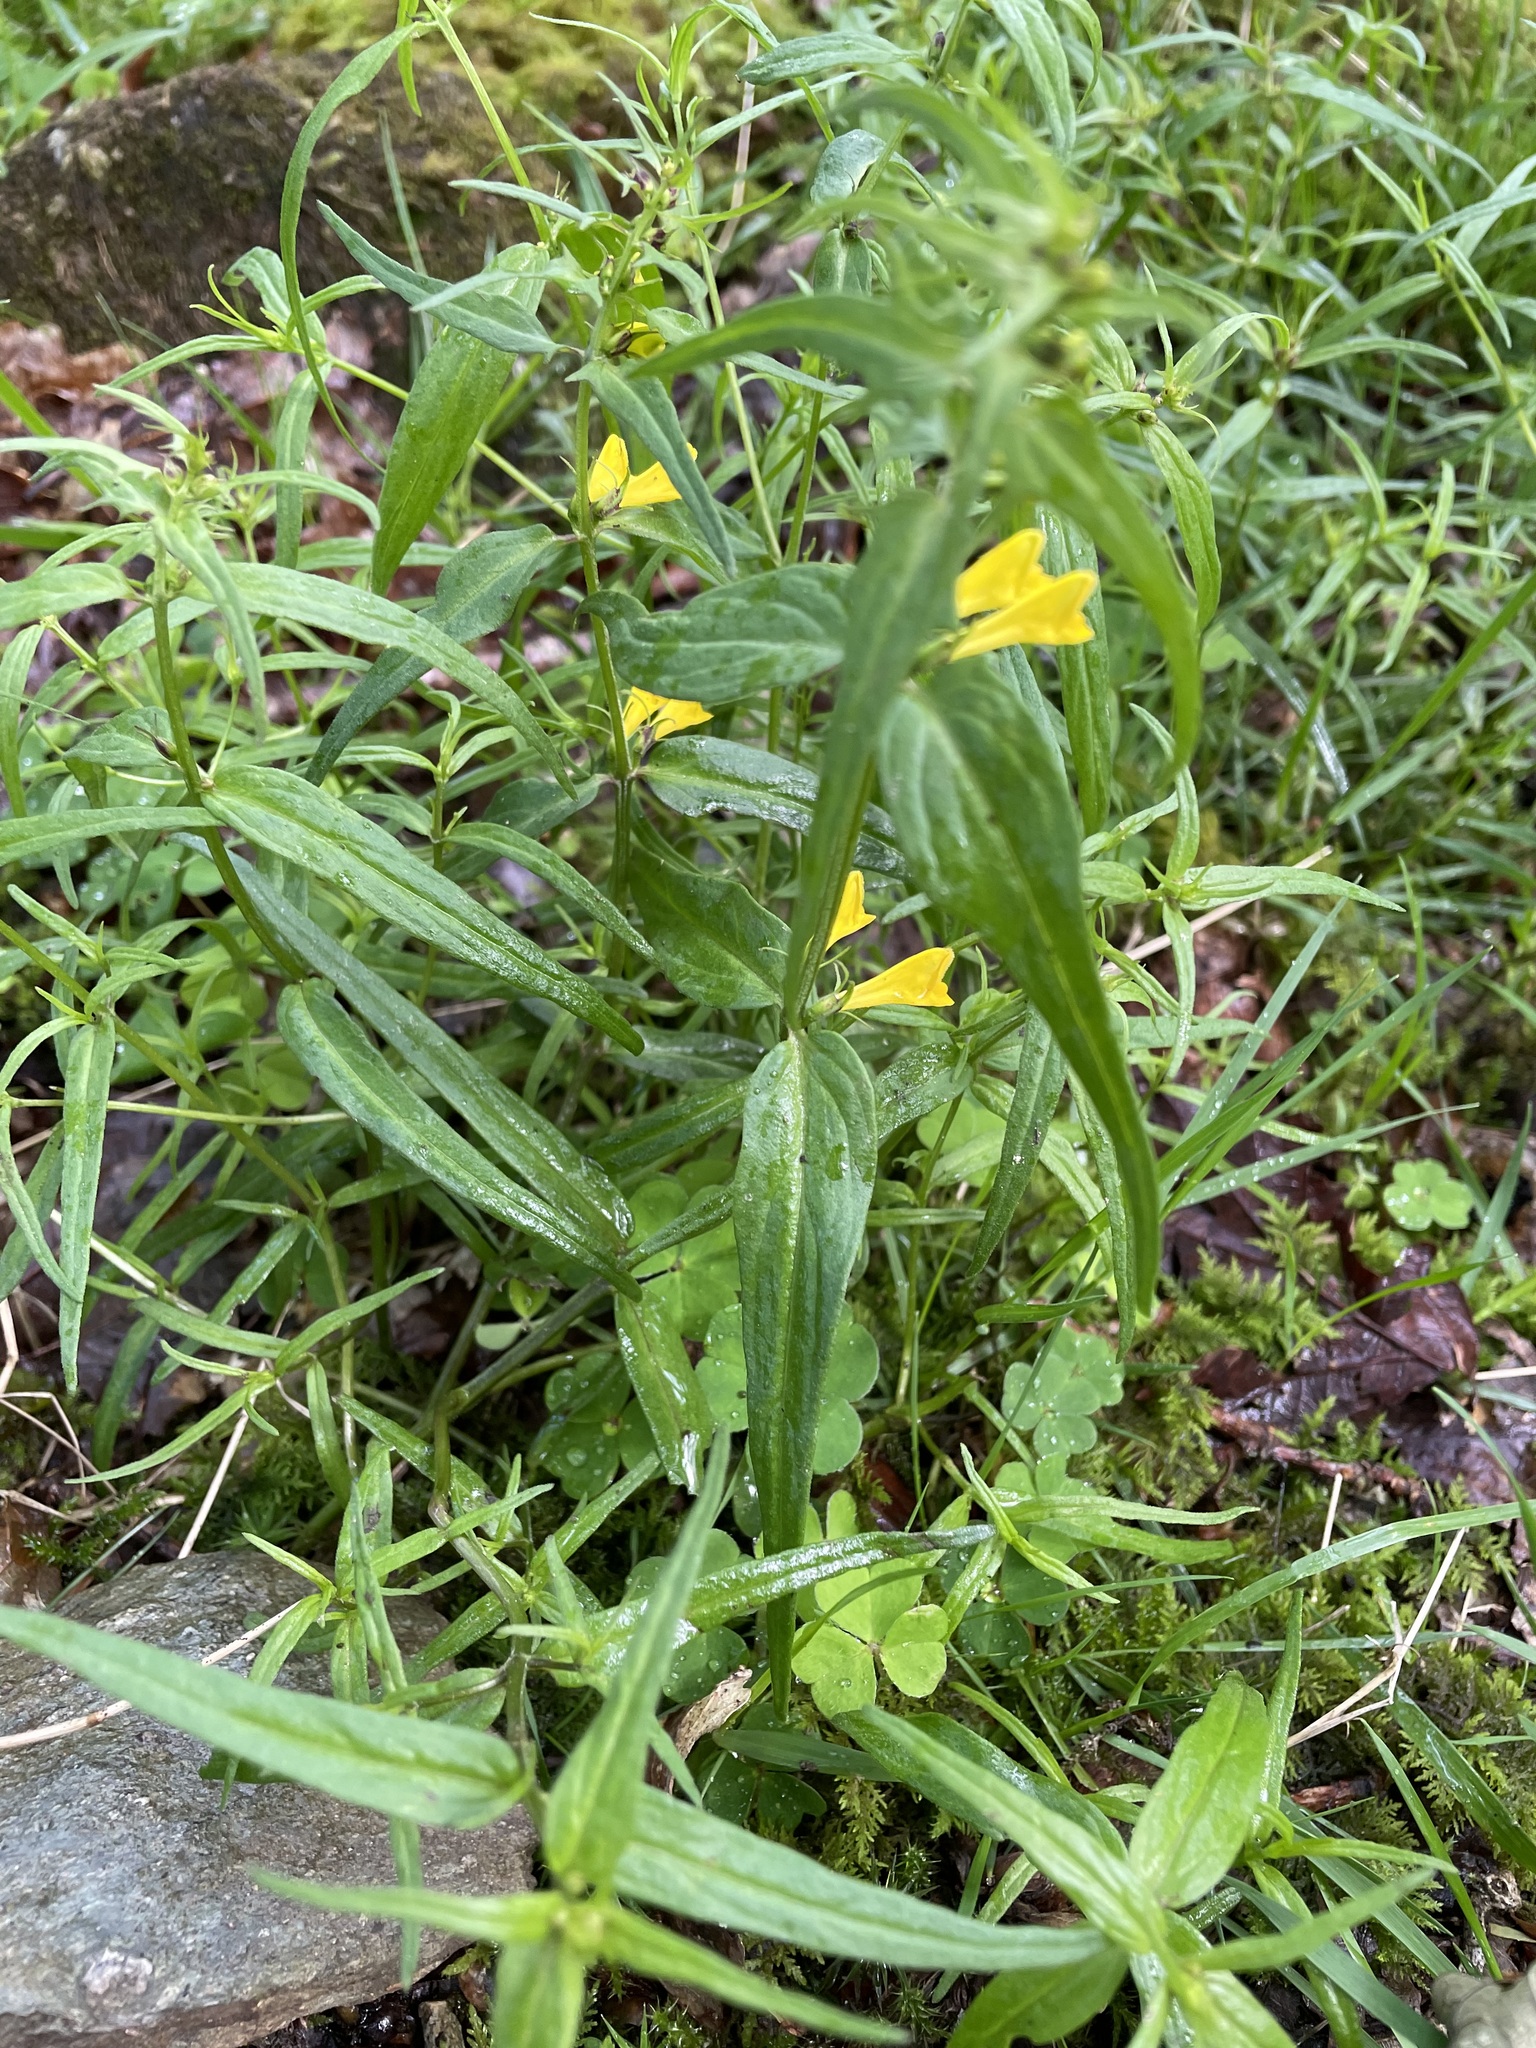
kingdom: Plantae
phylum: Tracheophyta
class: Magnoliopsida
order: Lamiales
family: Orobanchaceae
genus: Melampyrum
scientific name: Melampyrum pratense
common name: Common cow-wheat
